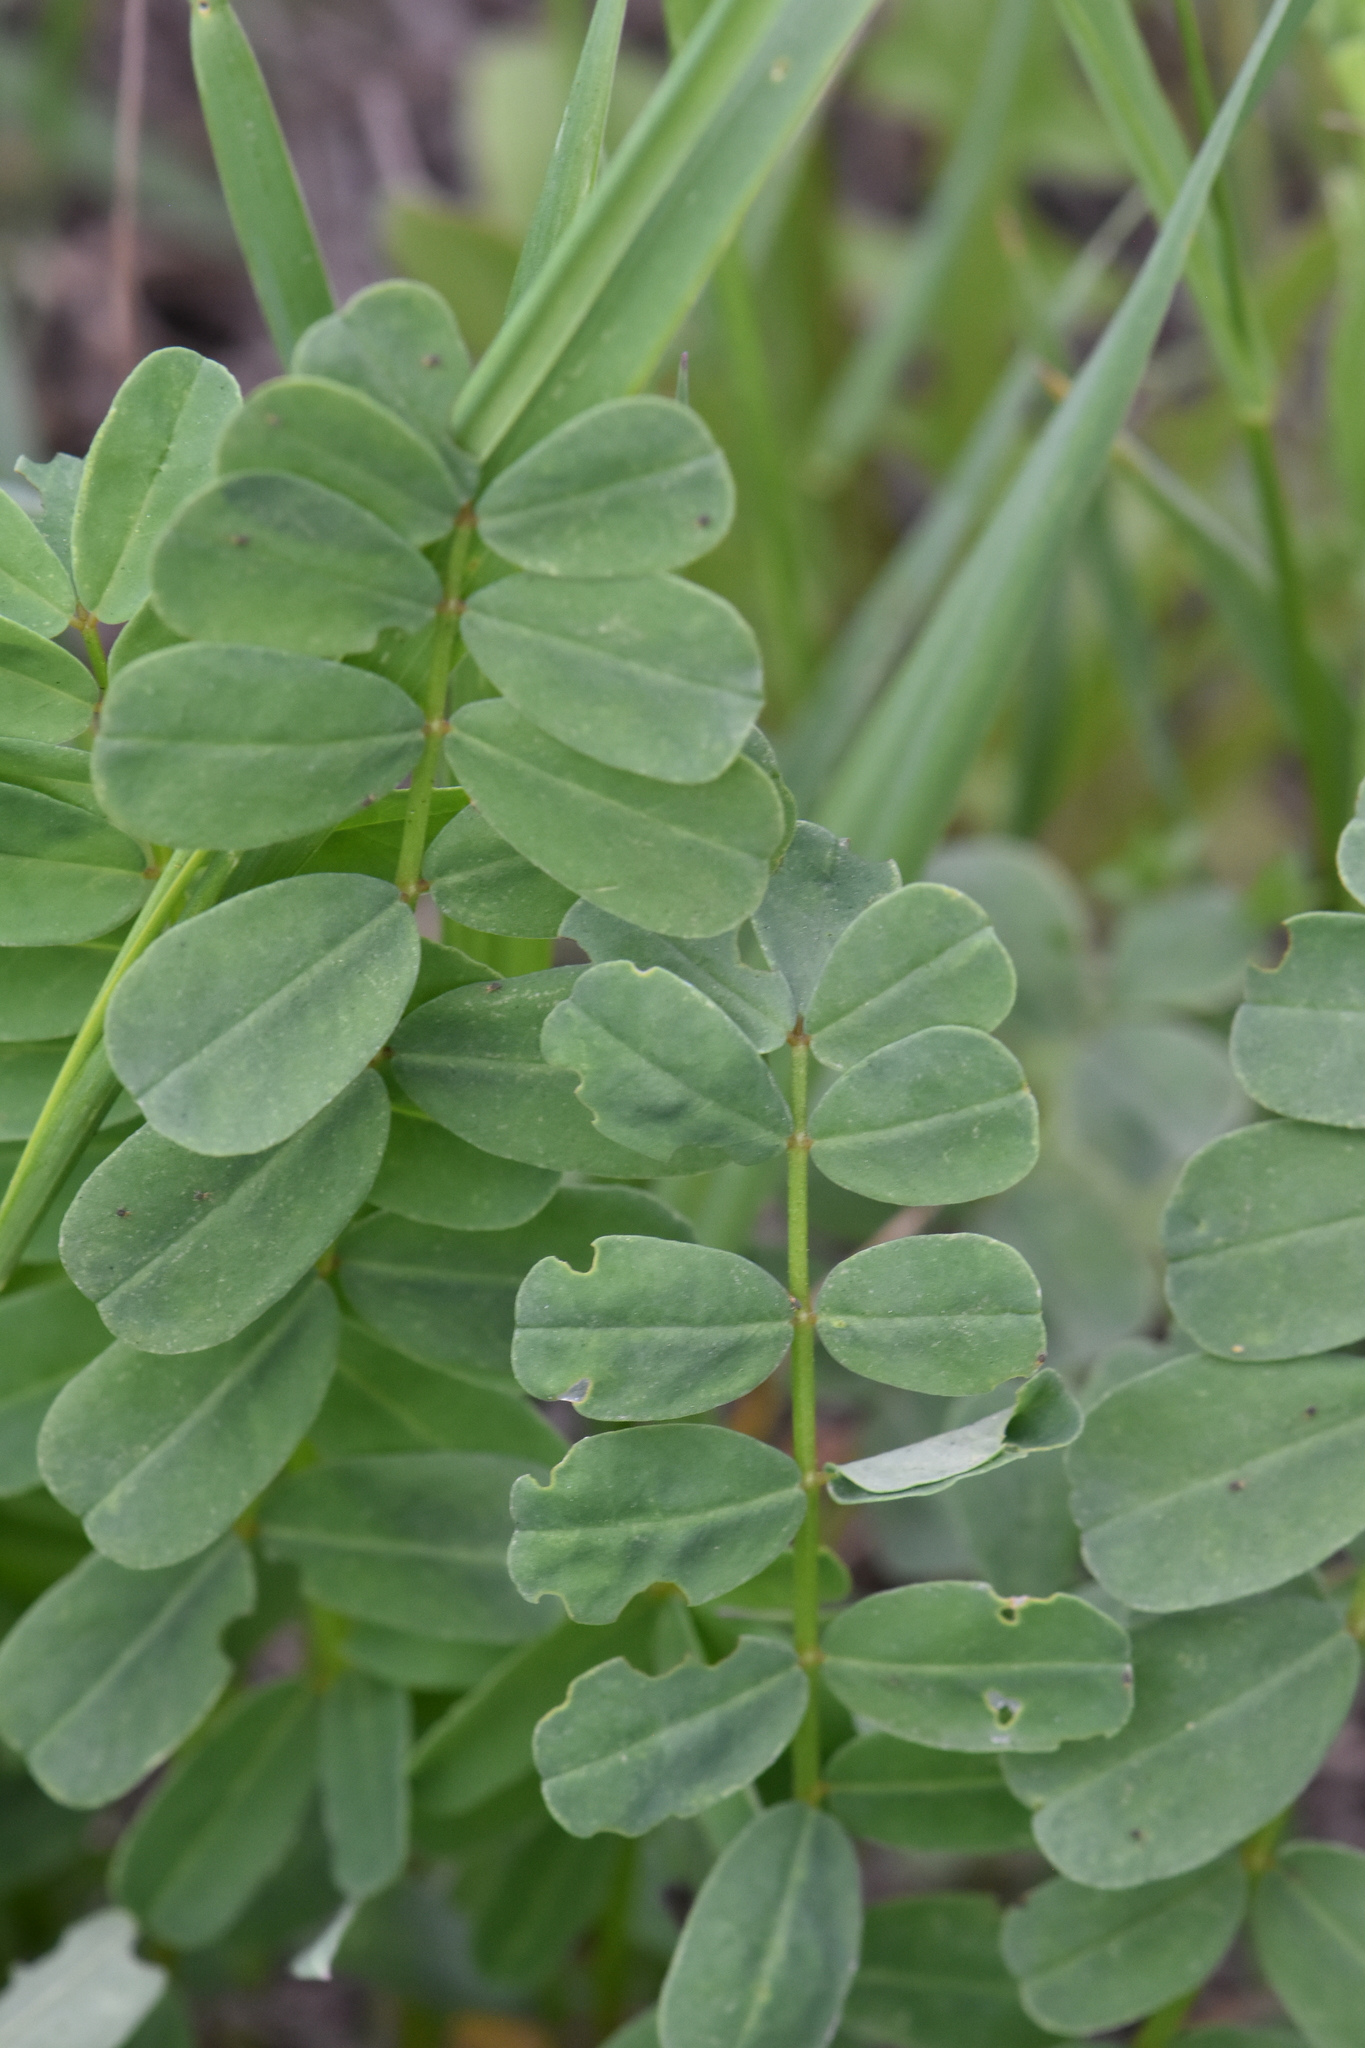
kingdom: Plantae
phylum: Tracheophyta
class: Magnoliopsida
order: Fabales
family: Fabaceae
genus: Coronilla
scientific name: Coronilla varia
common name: Crownvetch
